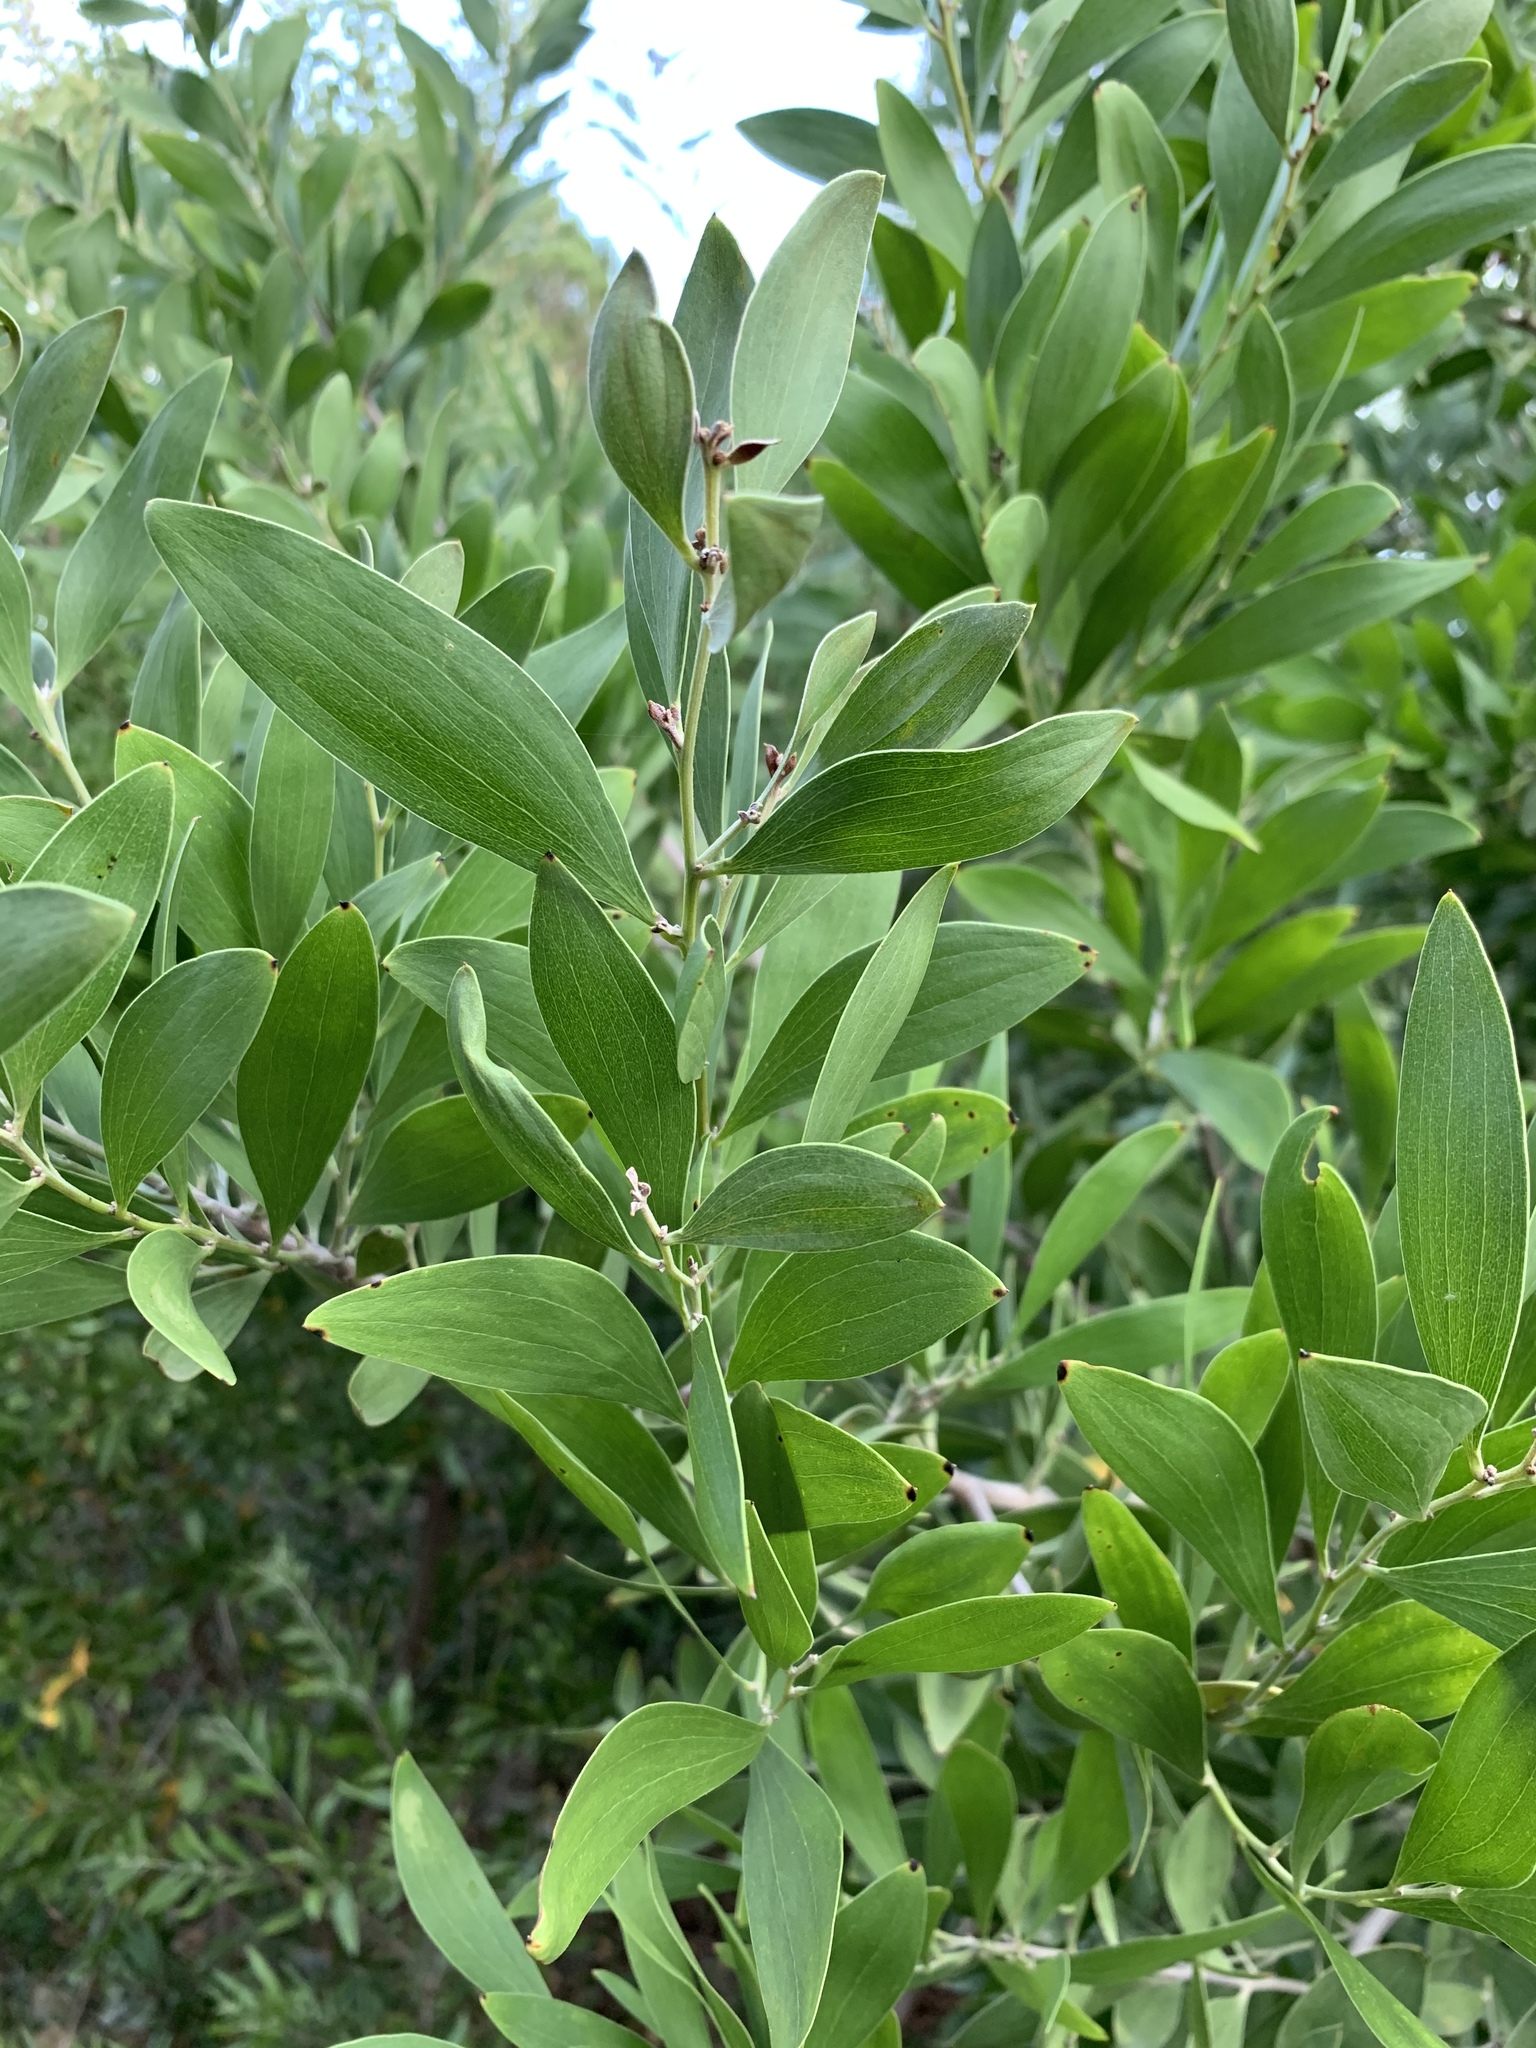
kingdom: Plantae
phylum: Tracheophyta
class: Magnoliopsida
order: Fabales
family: Fabaceae
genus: Acacia
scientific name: Acacia melanoxylon
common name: Blackwood
